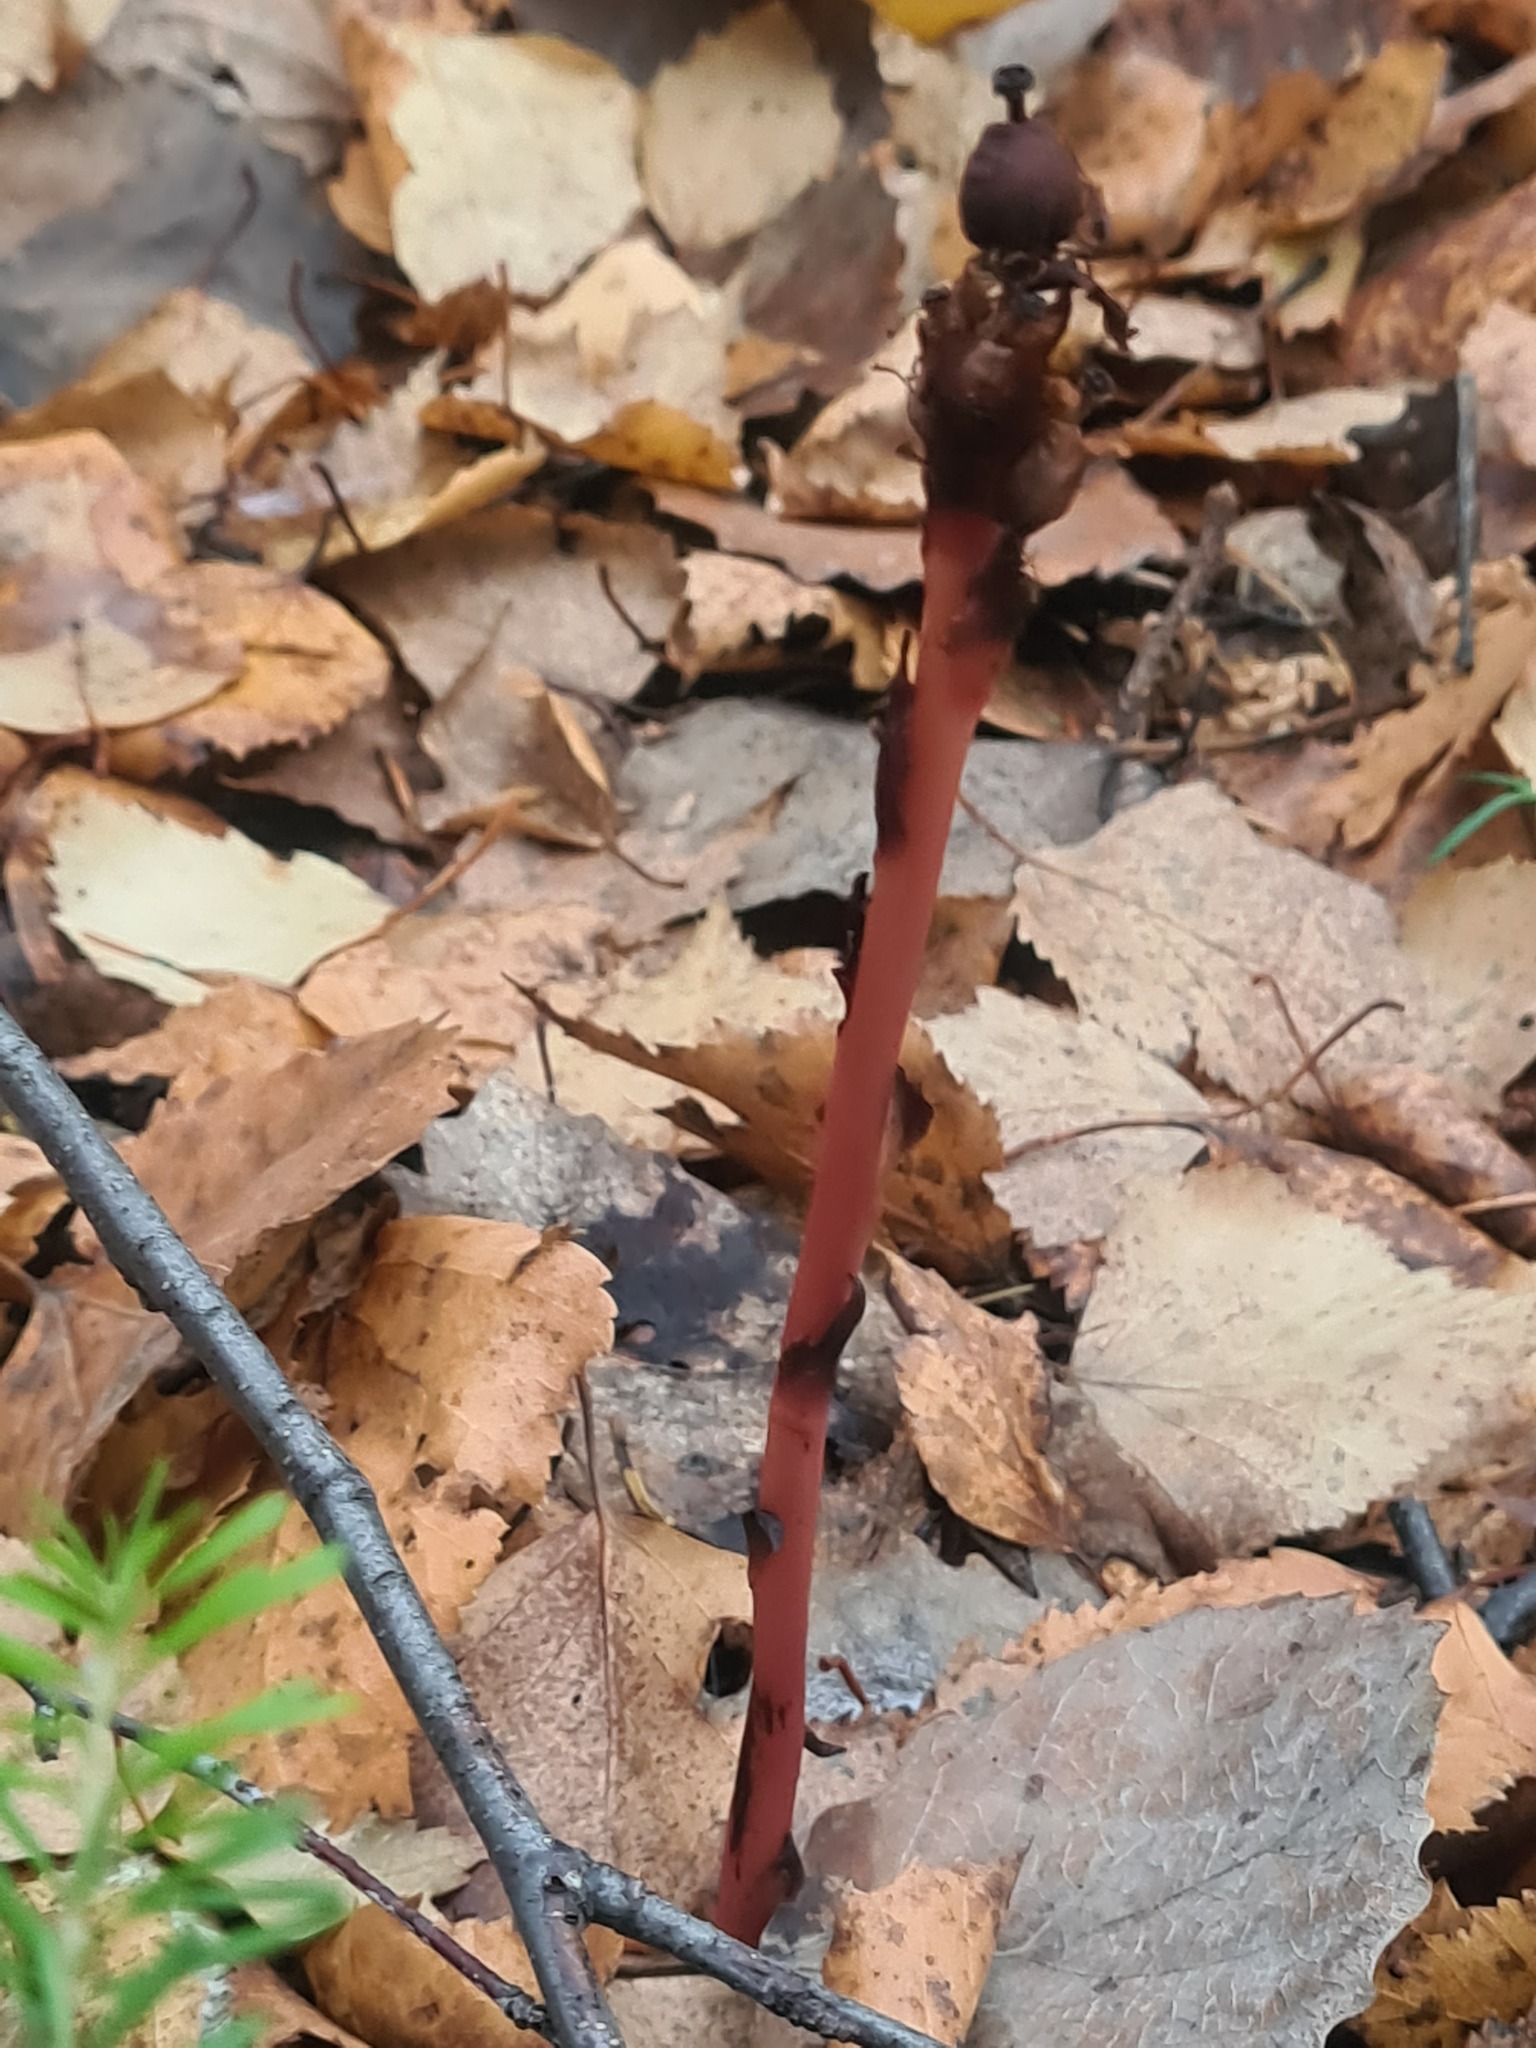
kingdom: Plantae
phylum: Tracheophyta
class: Magnoliopsida
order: Ericales
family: Ericaceae
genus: Hypopitys
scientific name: Hypopitys monotropa
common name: Yellow bird's-nest
